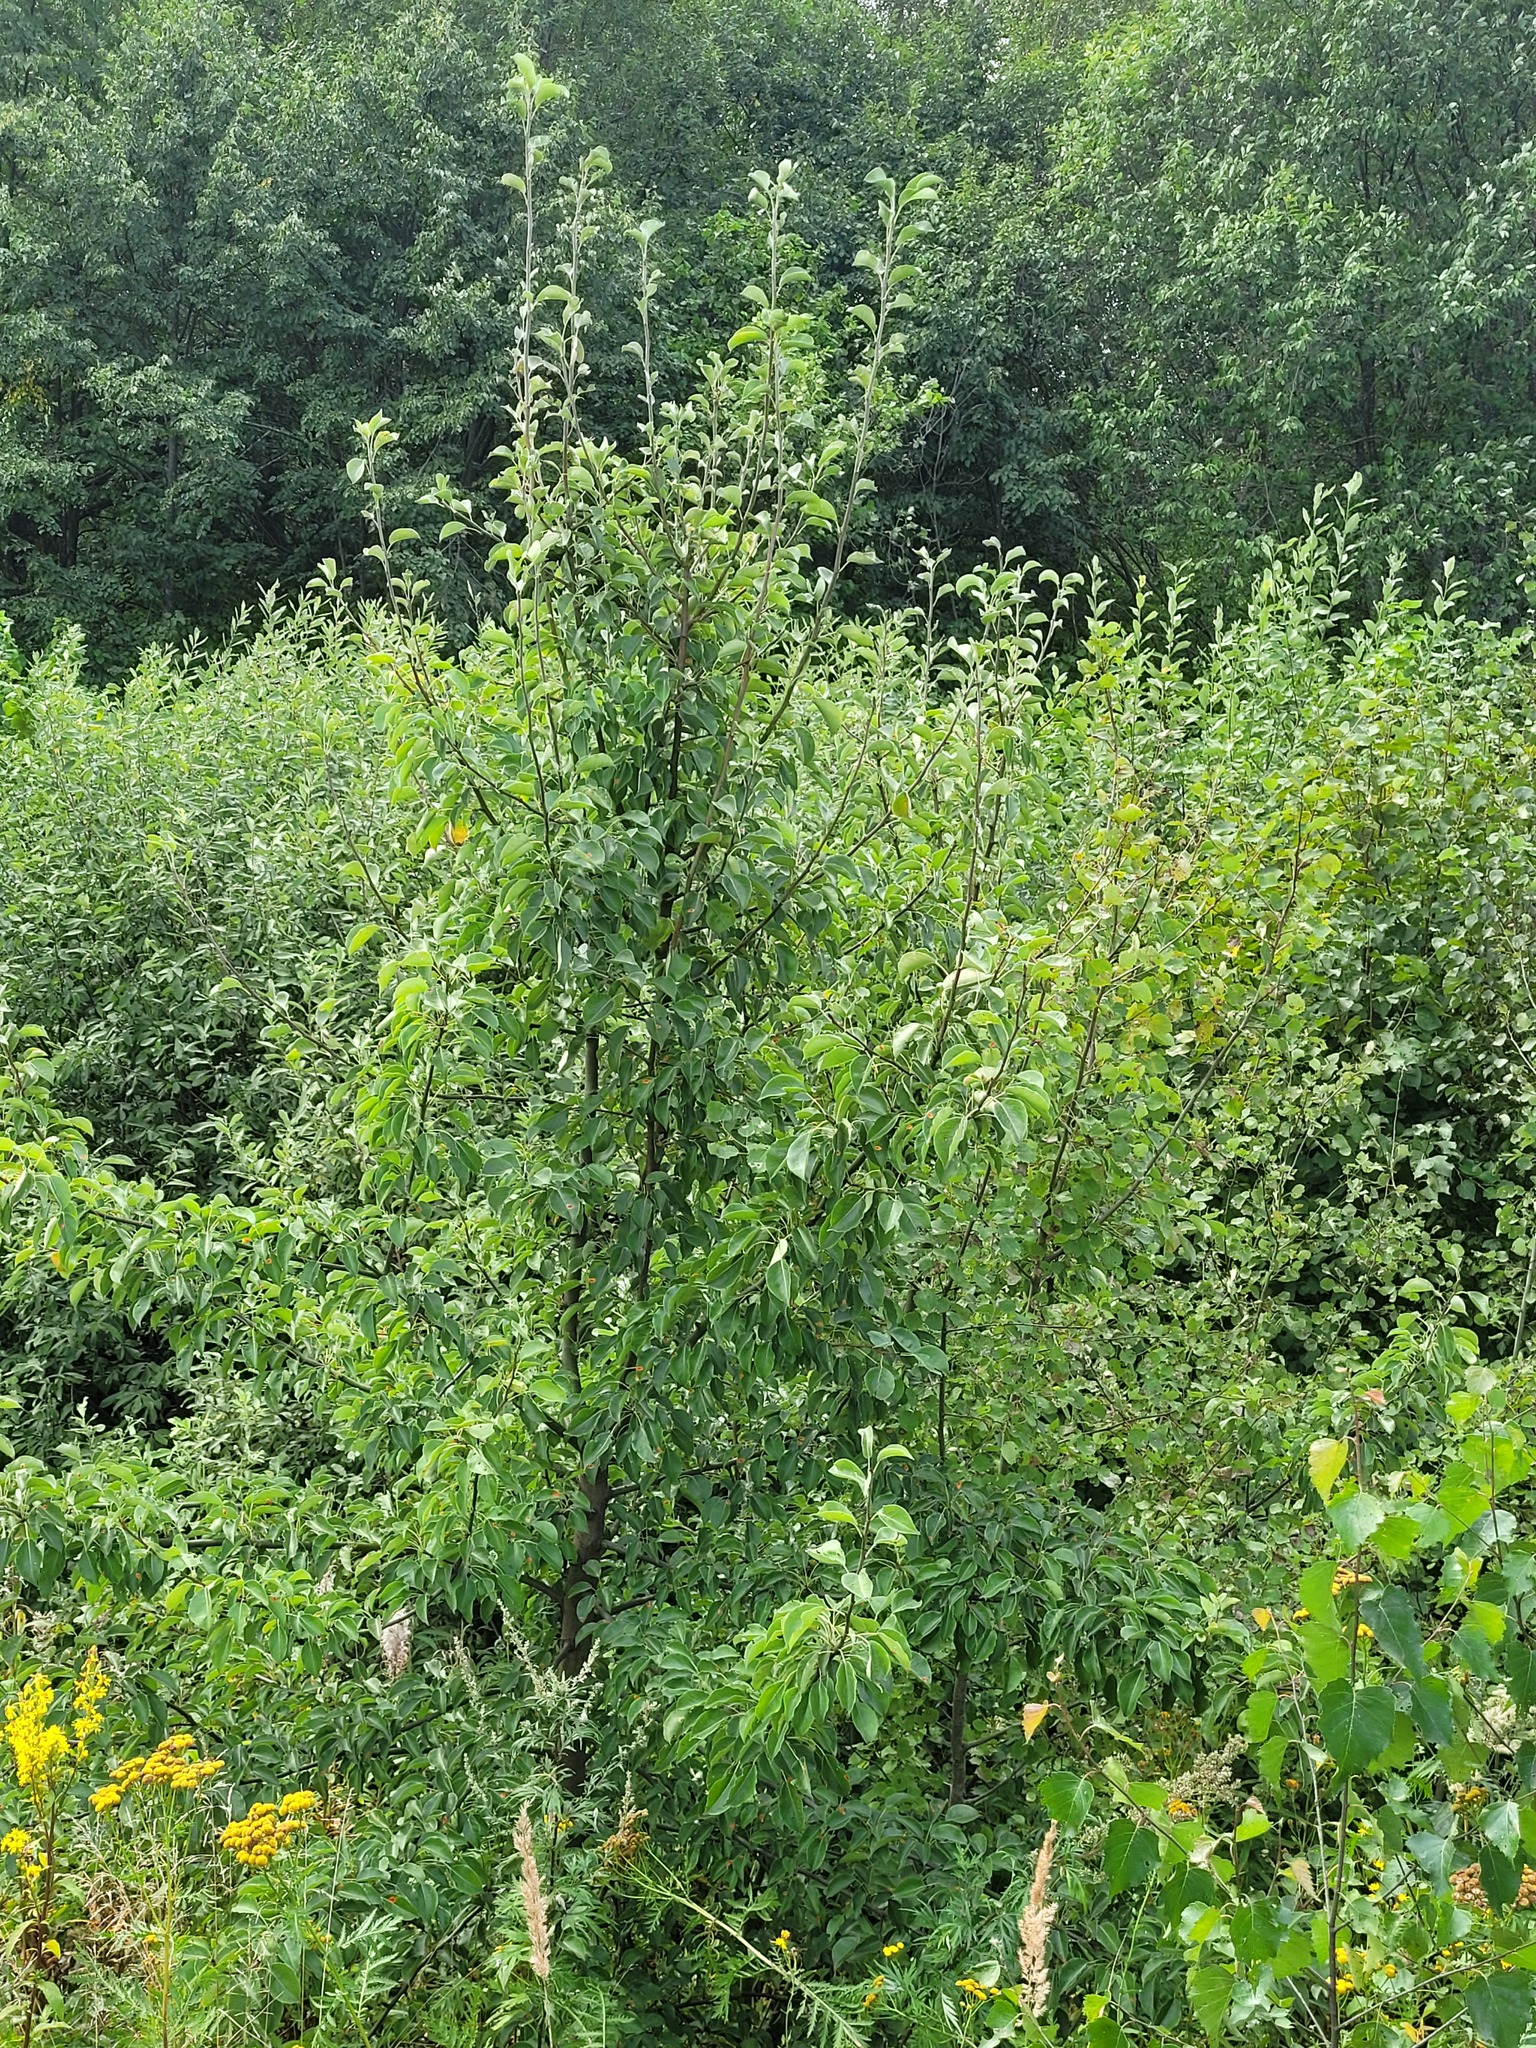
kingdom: Plantae
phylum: Tracheophyta
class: Magnoliopsida
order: Rosales
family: Rosaceae
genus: Pyrus
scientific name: Pyrus communis
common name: Pear
